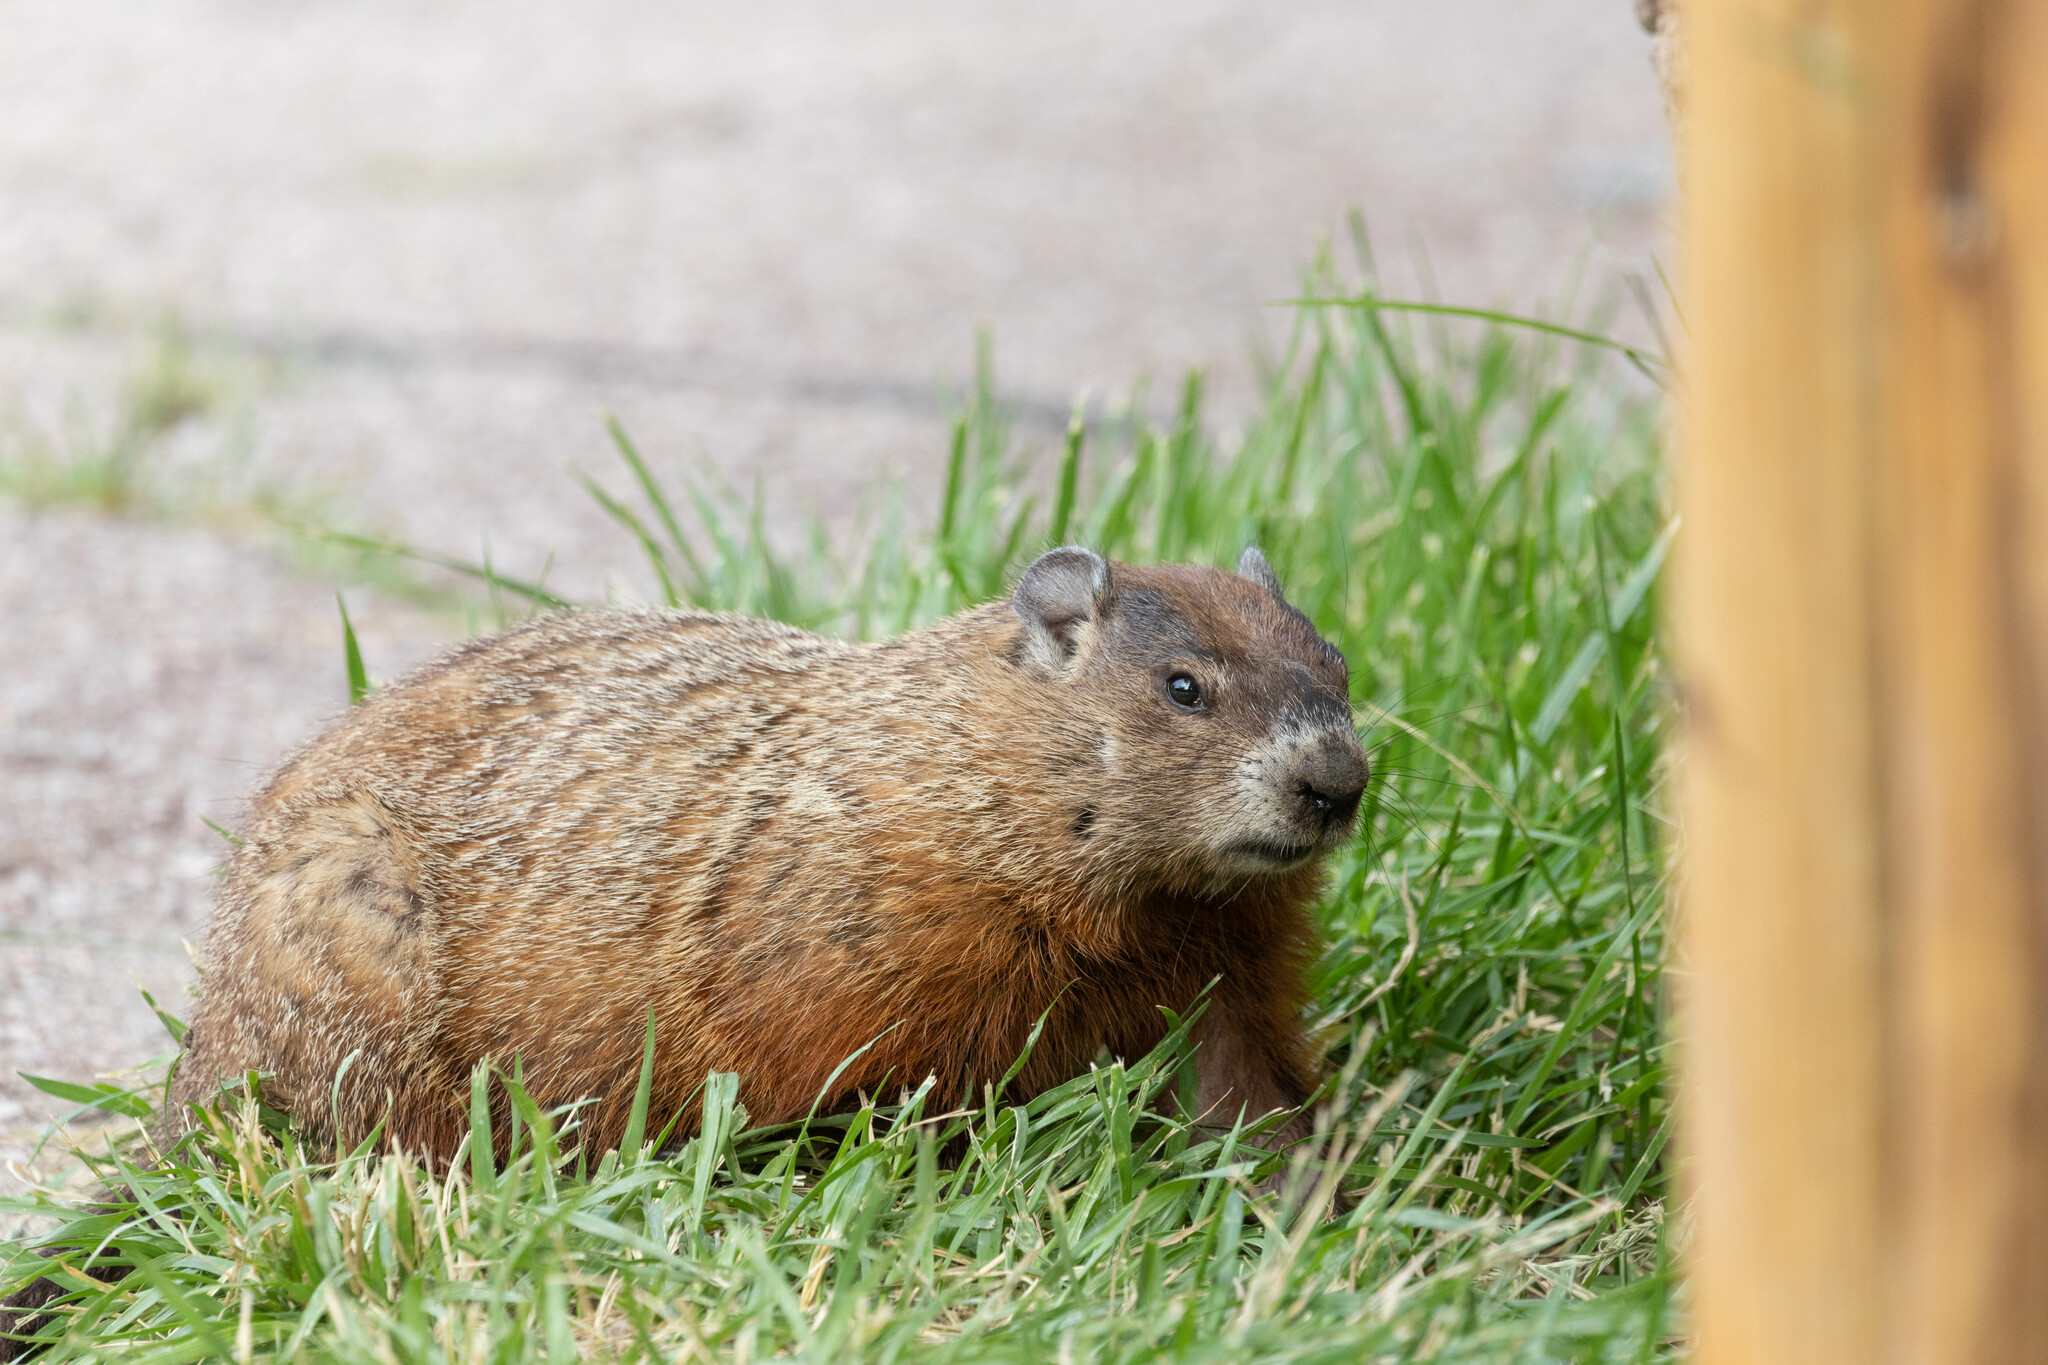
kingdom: Animalia
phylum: Chordata
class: Mammalia
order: Rodentia
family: Sciuridae
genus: Marmota
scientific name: Marmota monax
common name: Groundhog
